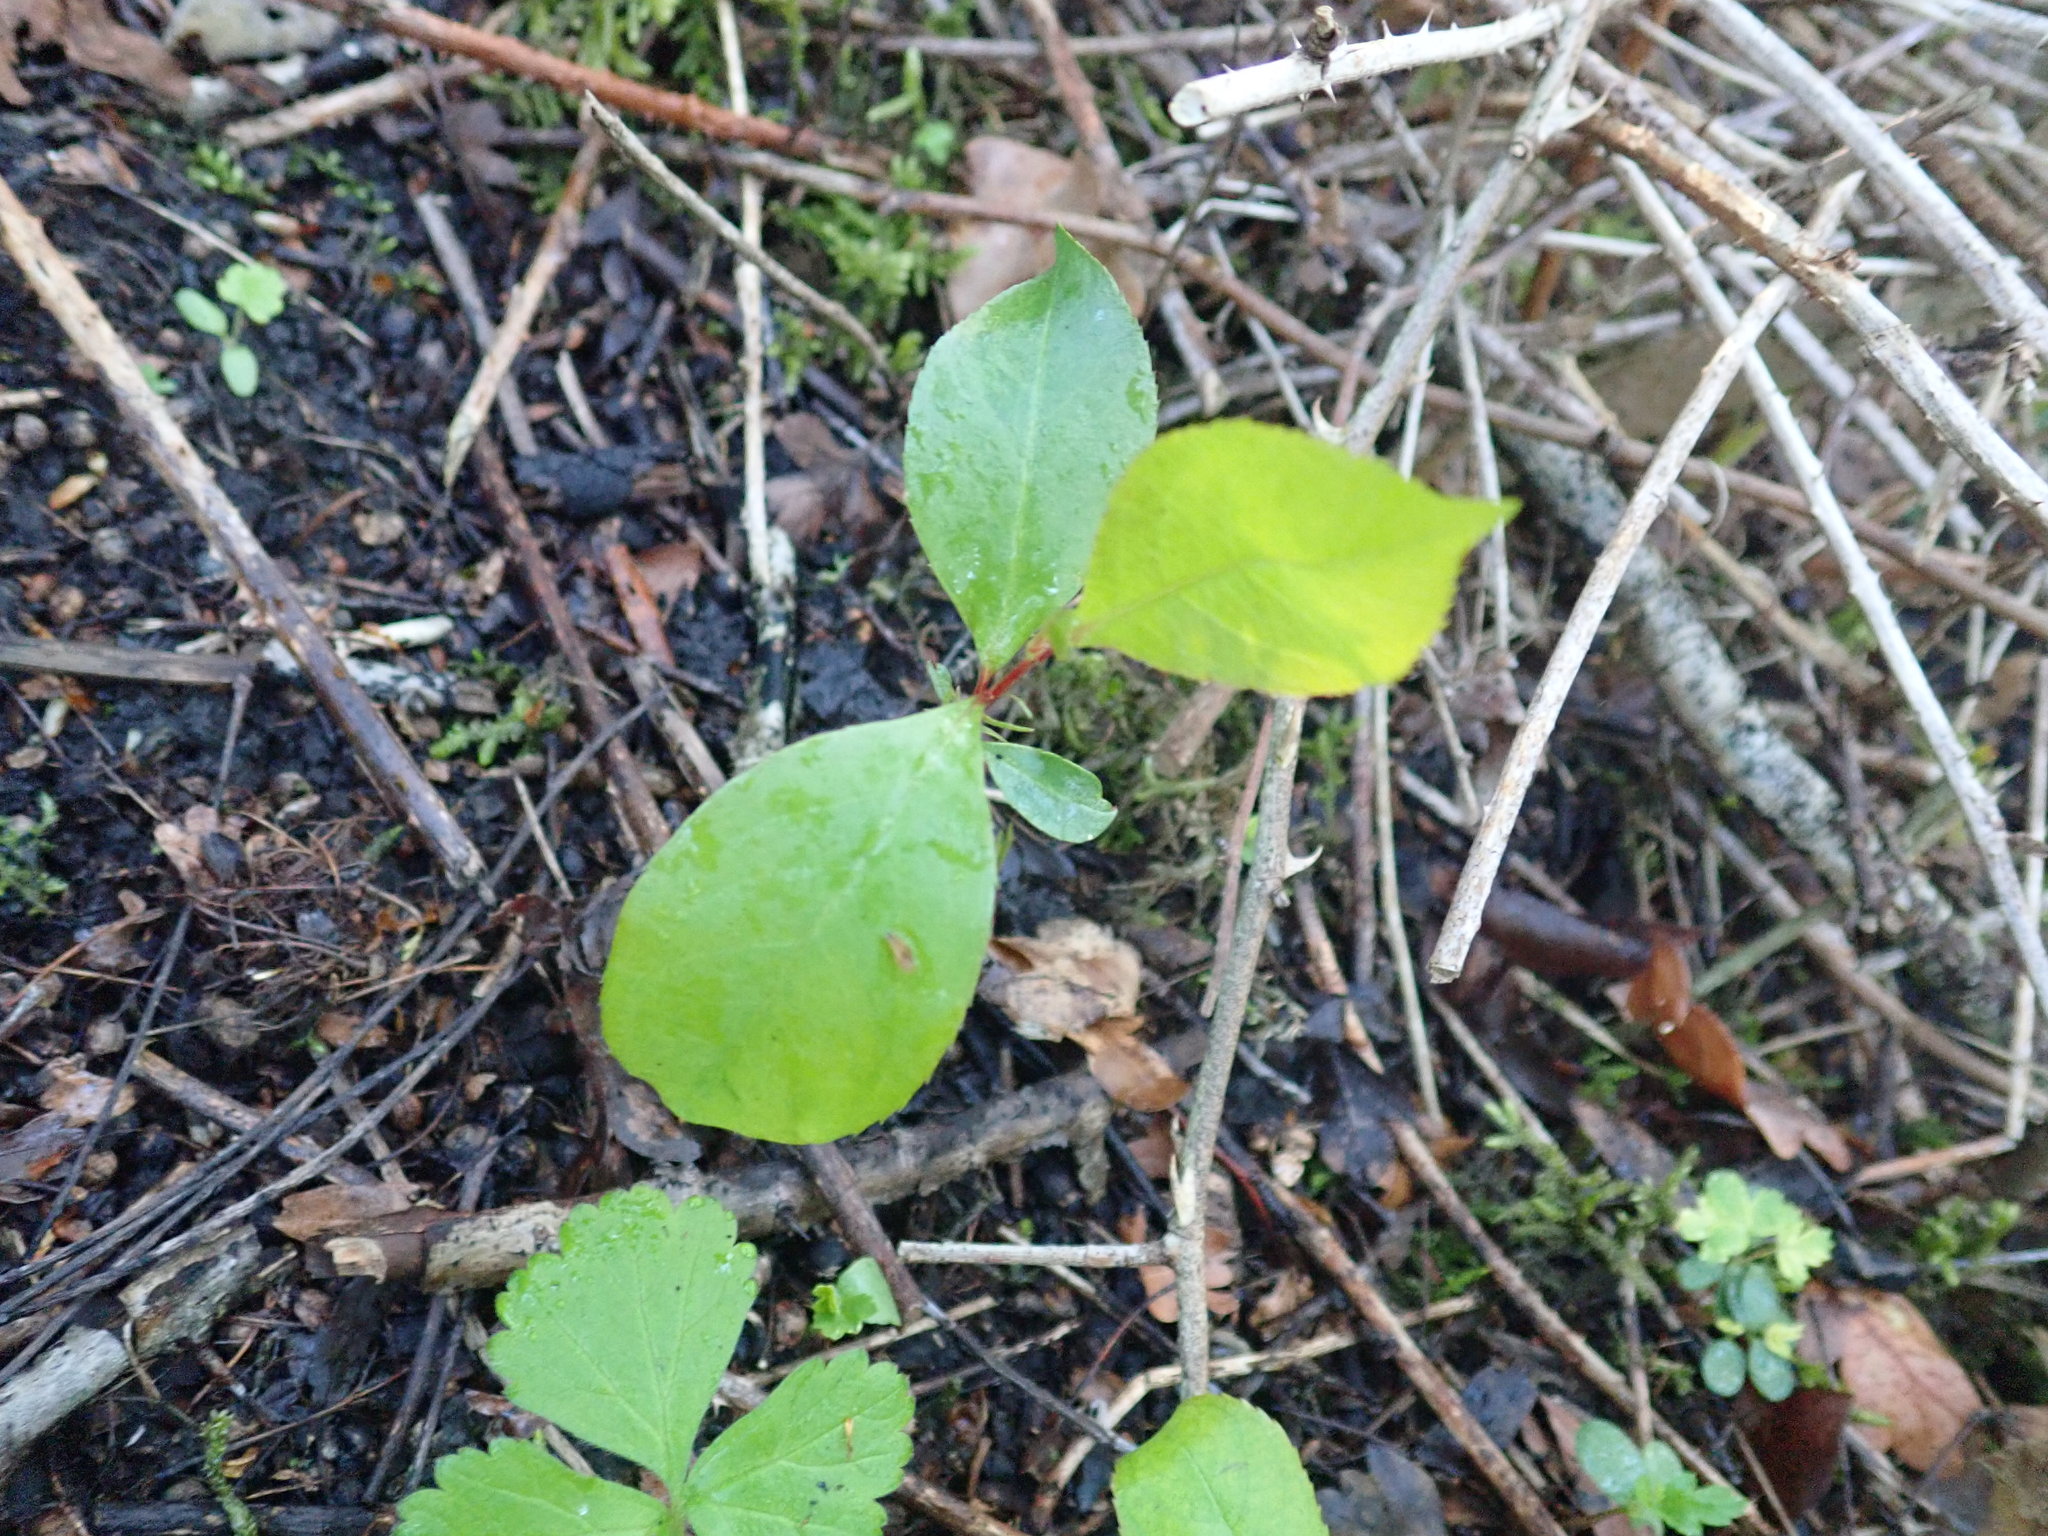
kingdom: Plantae
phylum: Tracheophyta
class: Magnoliopsida
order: Rosales
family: Rosaceae
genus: Prunus
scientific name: Prunus serotina
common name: Black cherry
